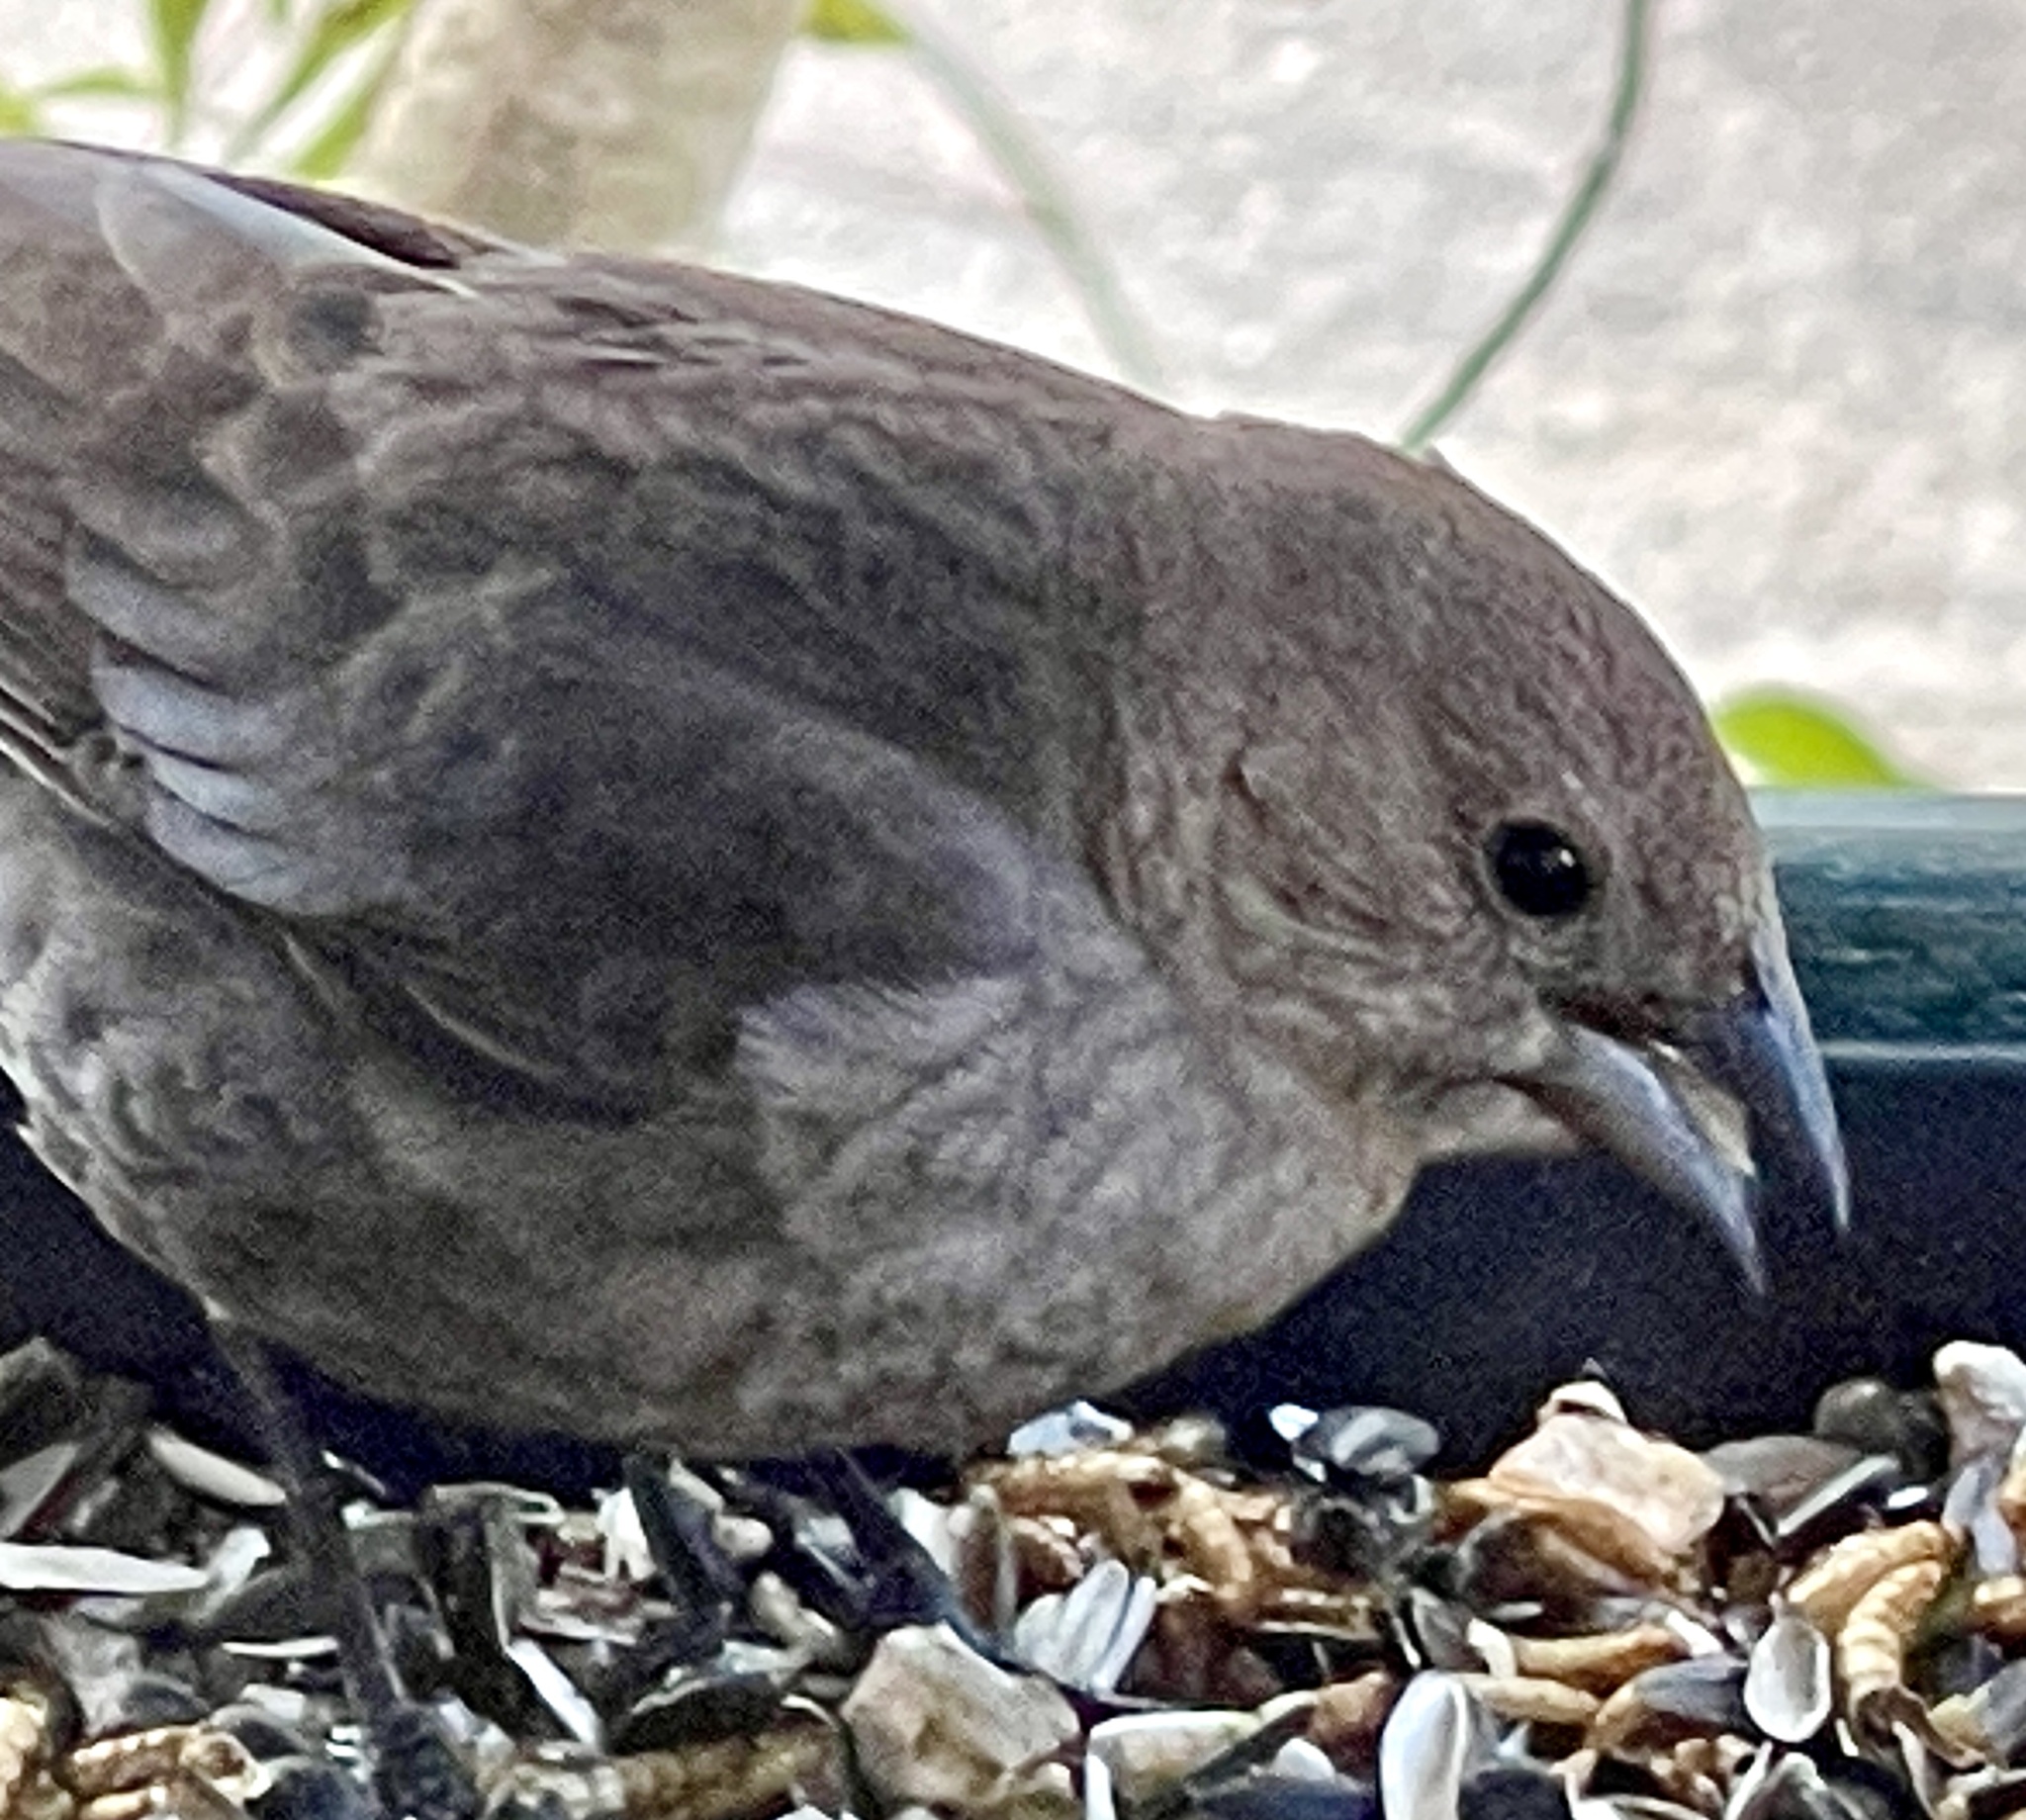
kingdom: Animalia
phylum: Chordata
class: Aves
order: Passeriformes
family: Icteridae
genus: Molothrus
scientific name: Molothrus ater
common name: Brown-headed cowbird
